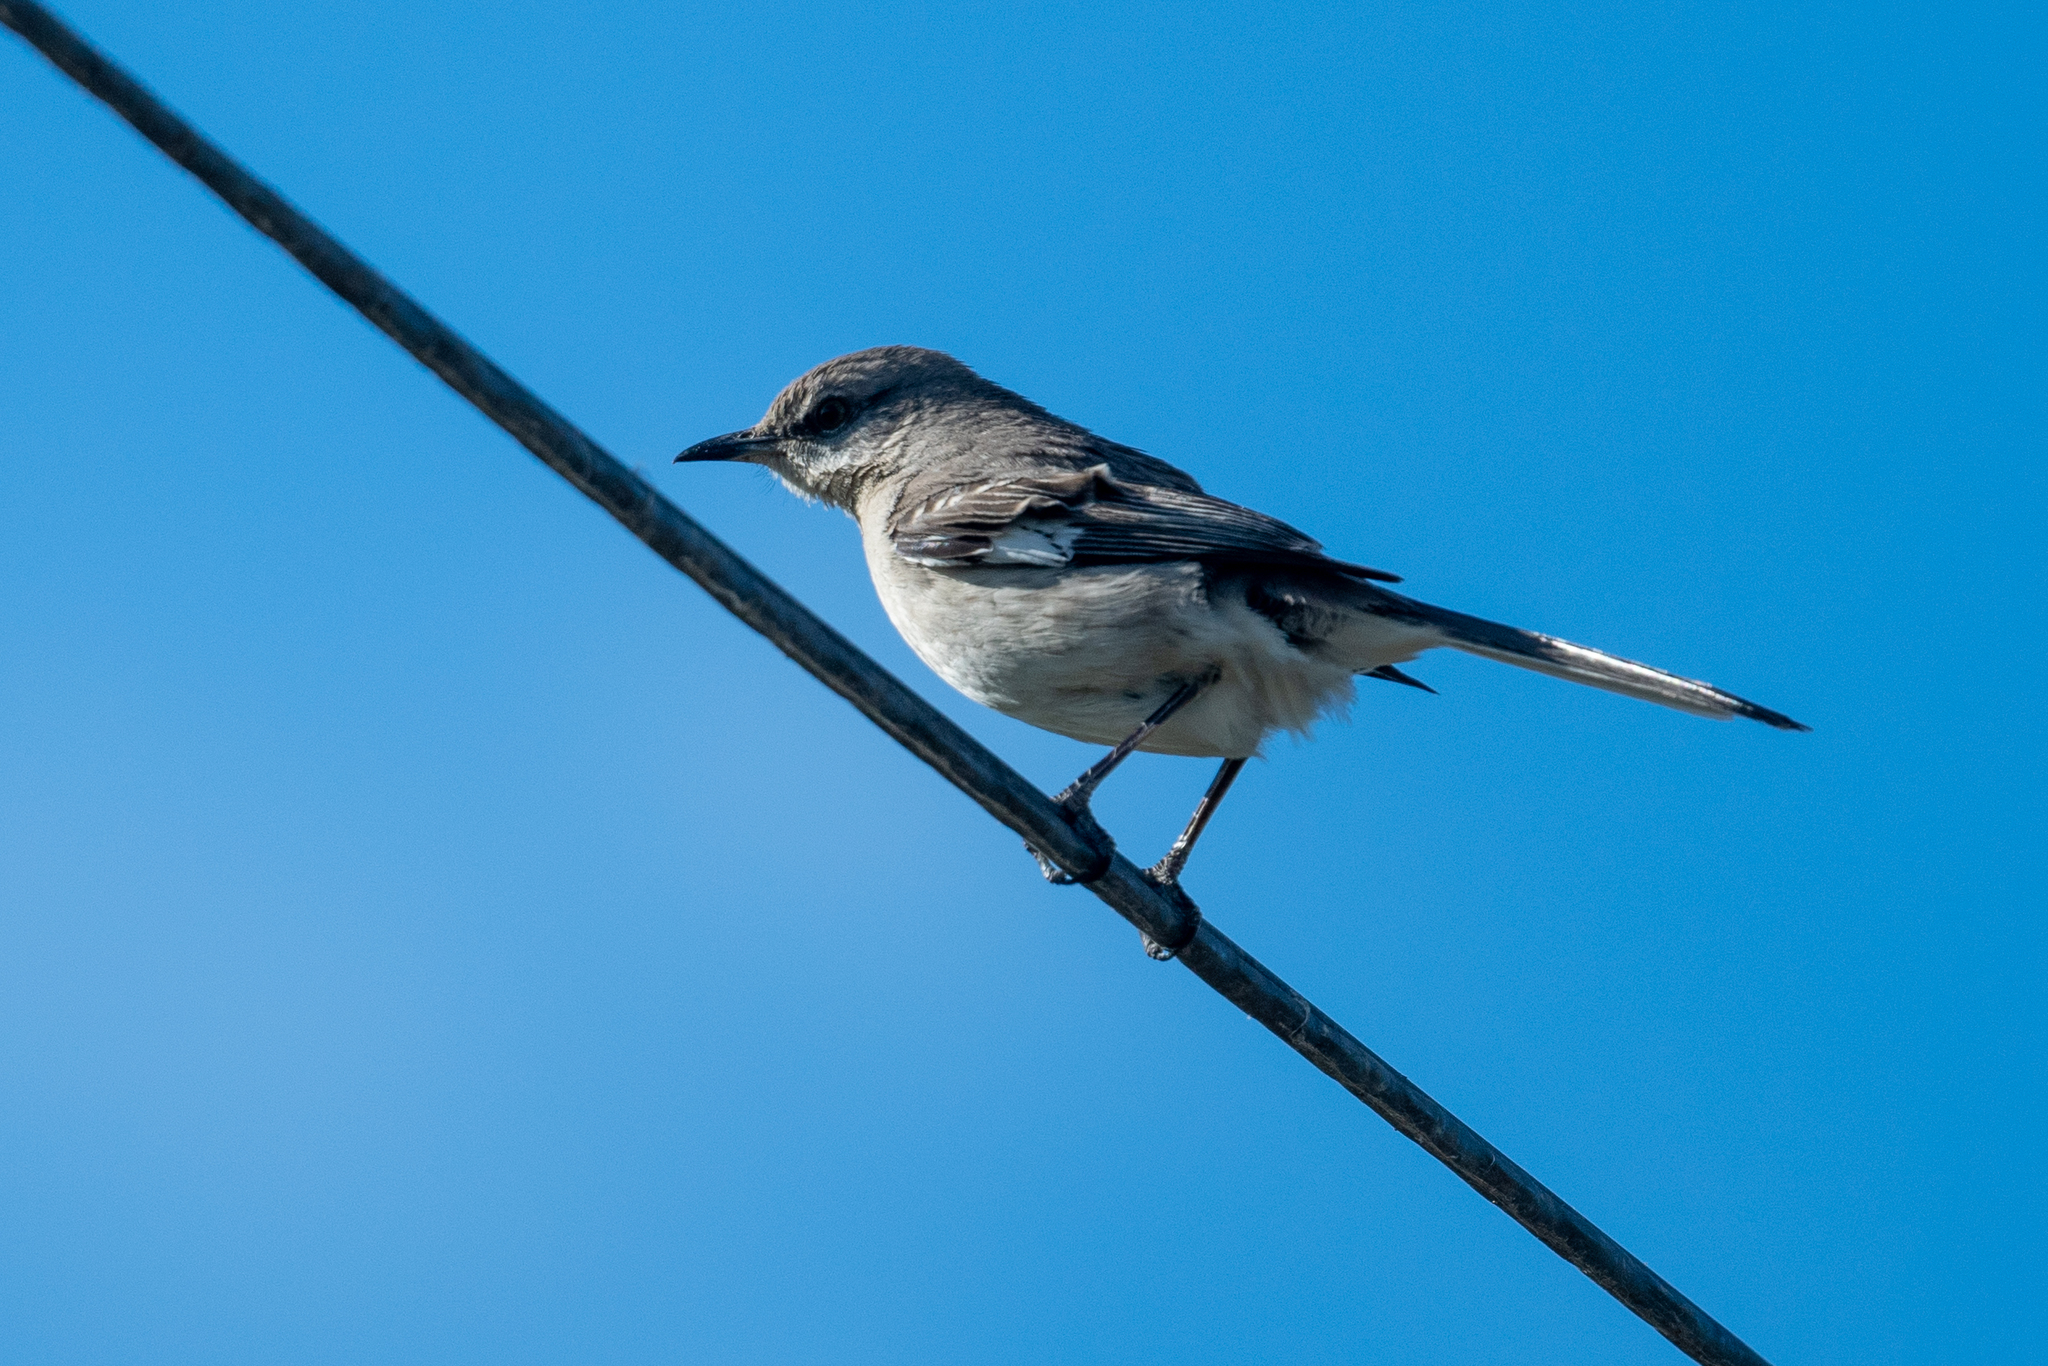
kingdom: Animalia
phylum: Chordata
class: Aves
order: Passeriformes
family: Mimidae
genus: Mimus
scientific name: Mimus polyglottos
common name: Northern mockingbird
